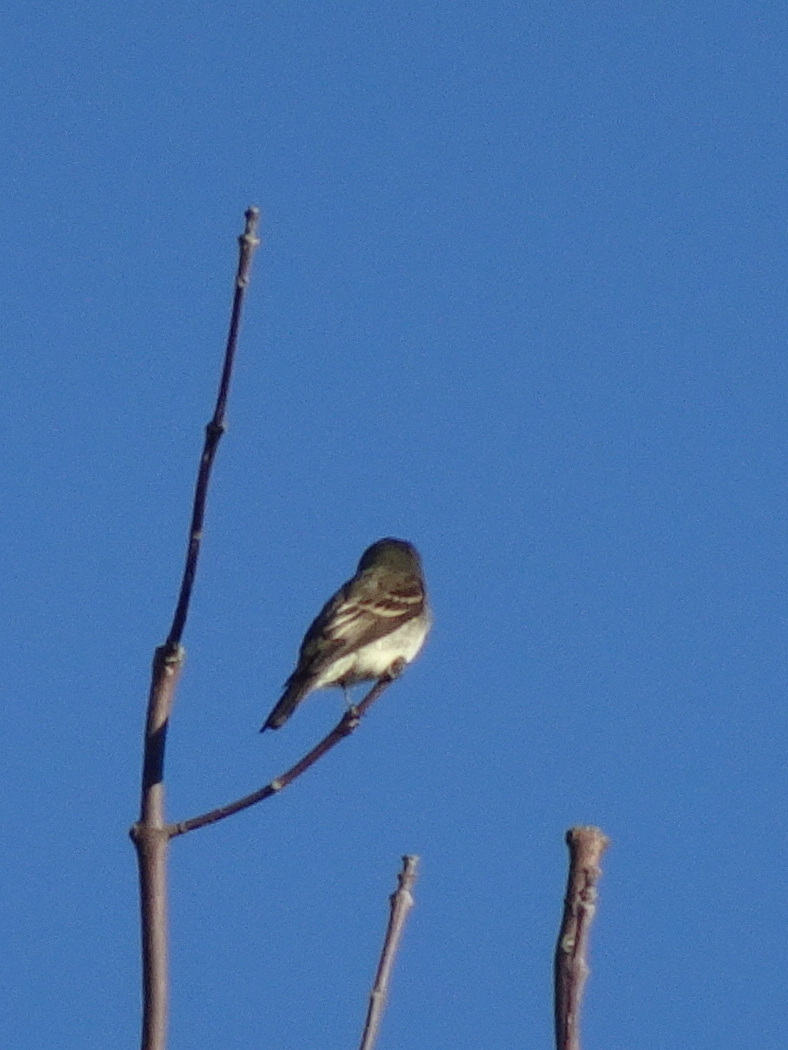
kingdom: Animalia
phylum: Chordata
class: Aves
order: Passeriformes
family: Tyrannidae
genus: Contopus
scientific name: Contopus virens
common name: Eastern wood-pewee
